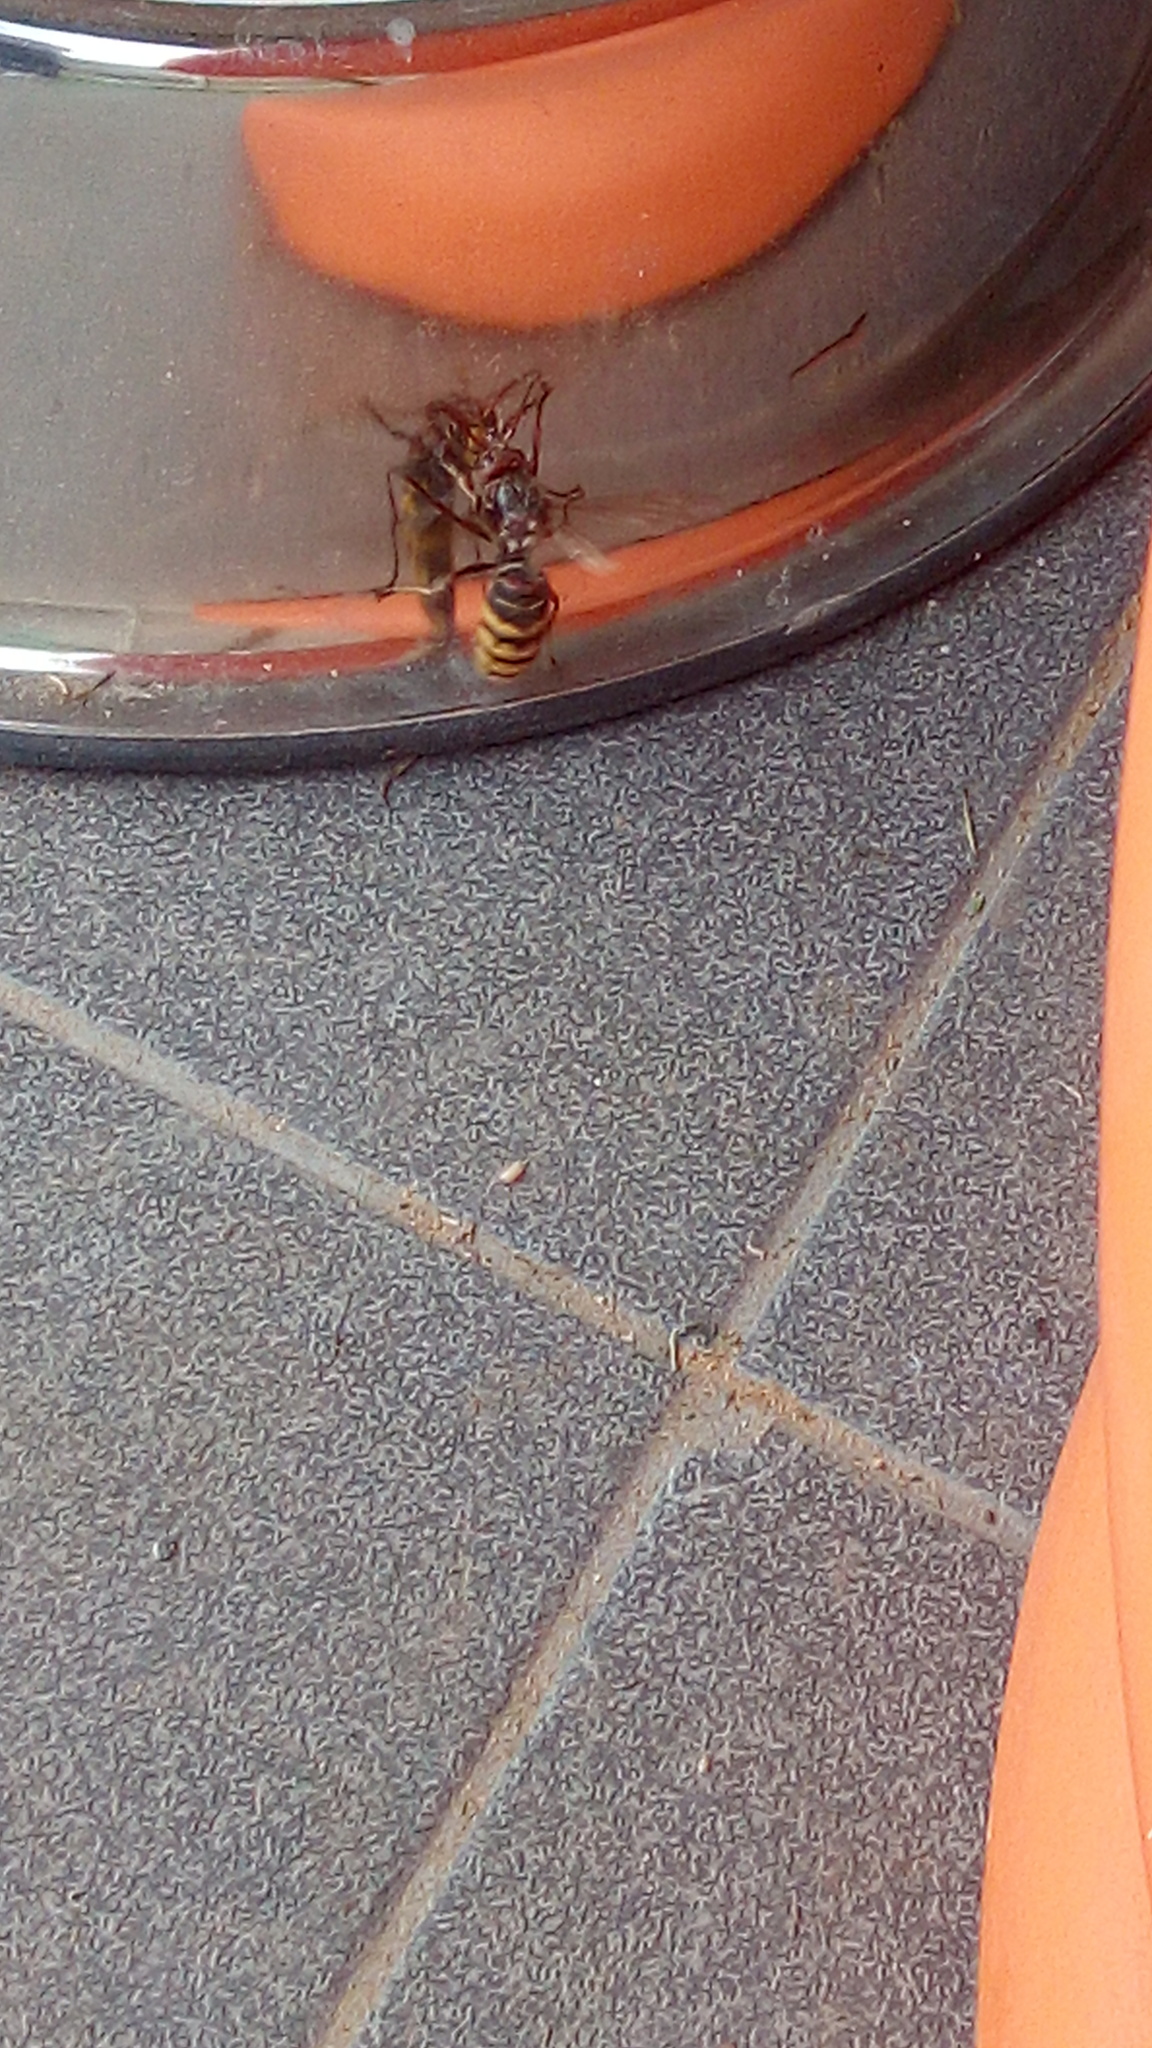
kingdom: Animalia
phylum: Arthropoda
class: Insecta
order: Hymenoptera
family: Vespidae
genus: Vespa
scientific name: Vespa crabro
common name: Hornet
